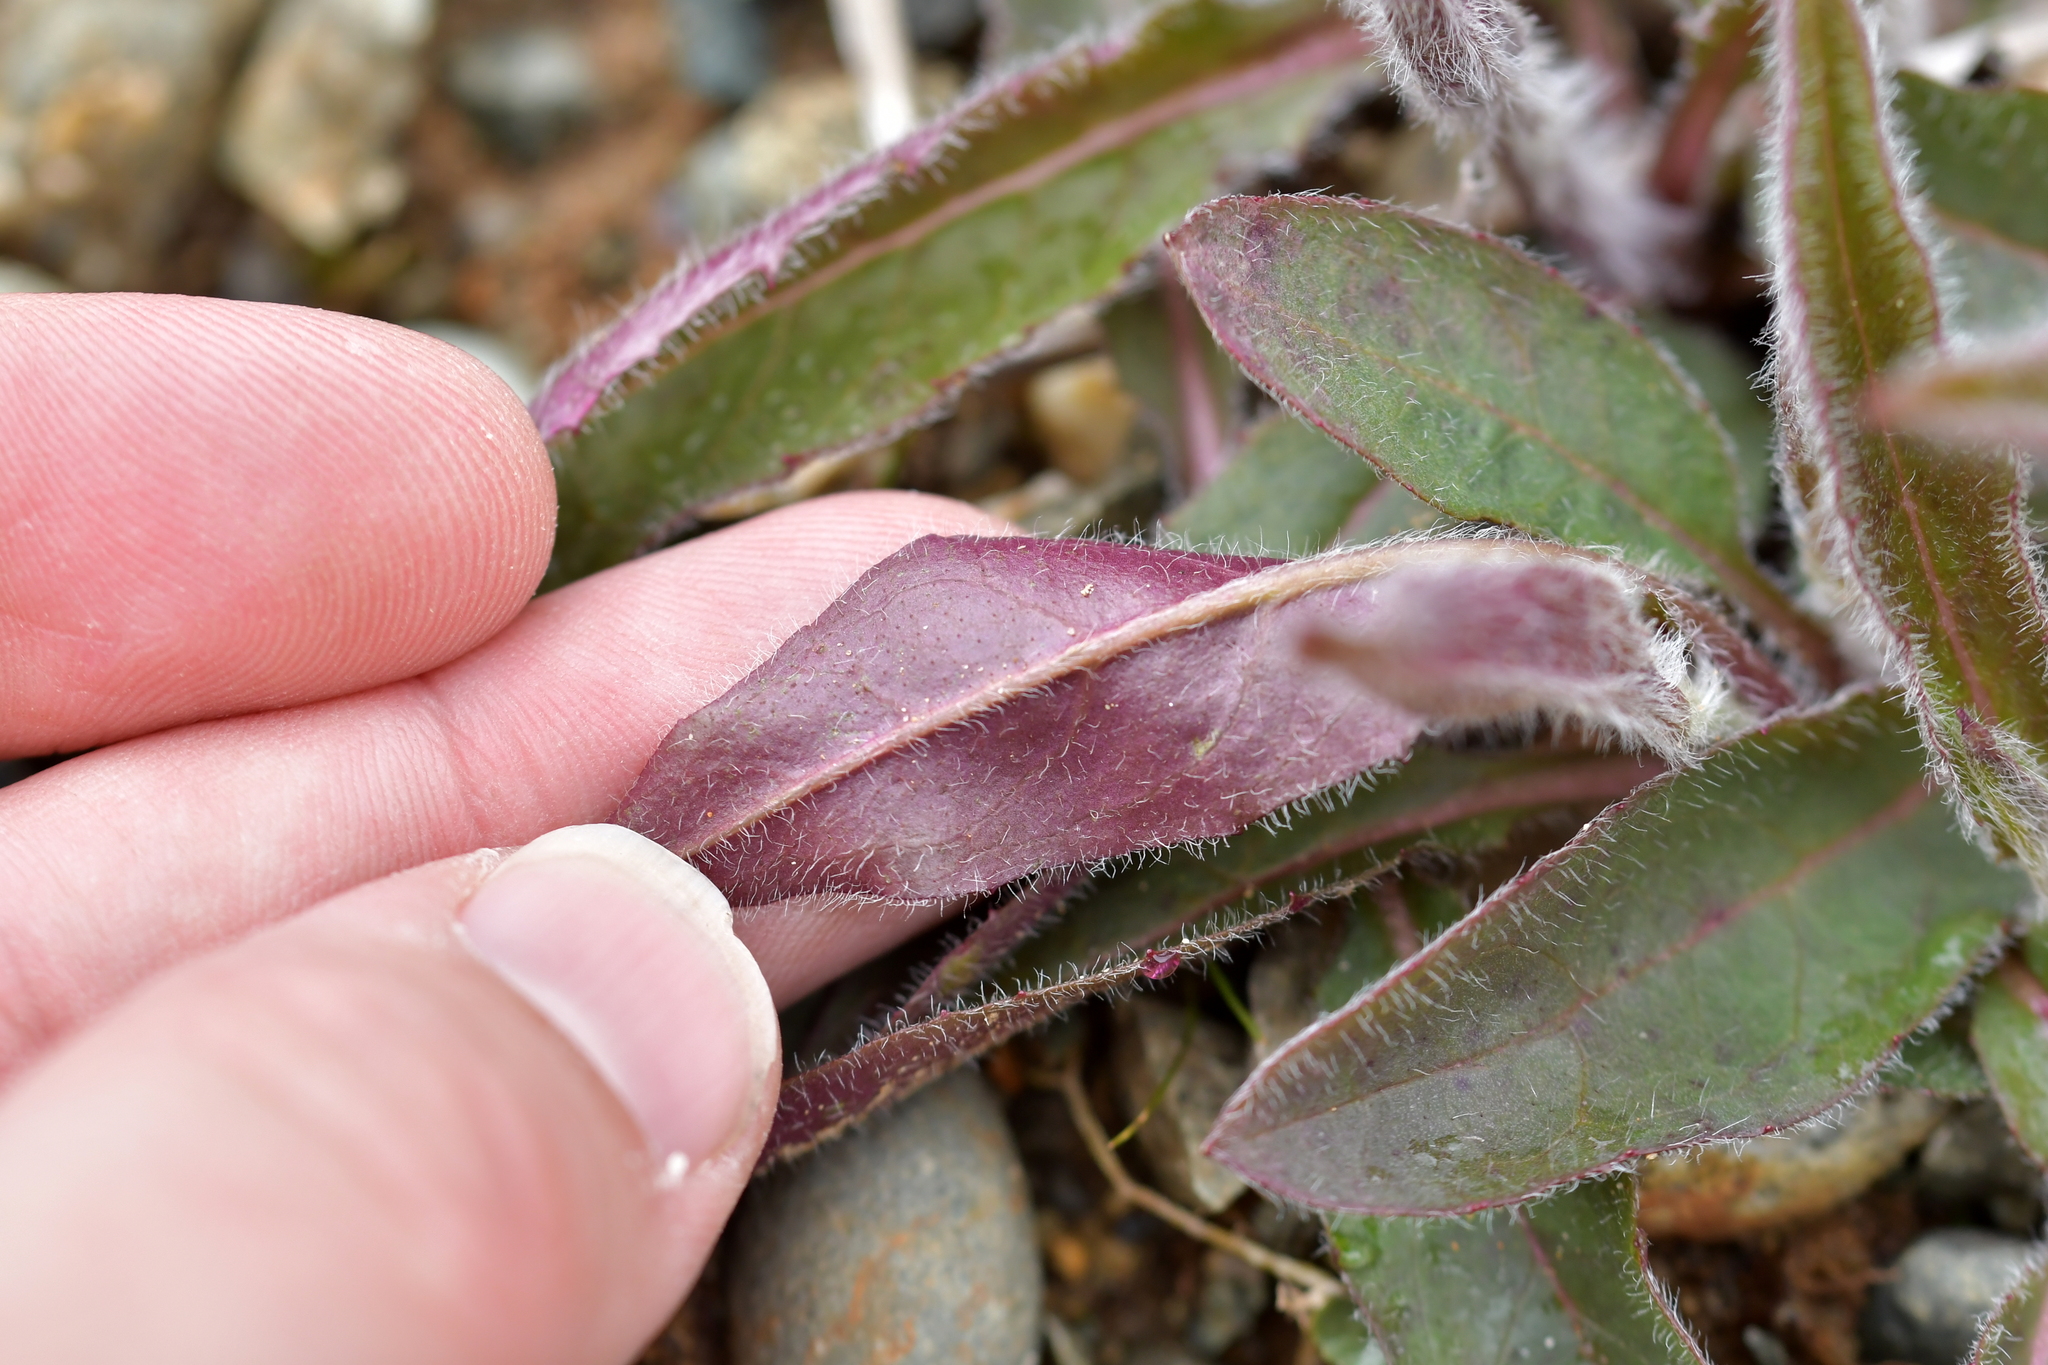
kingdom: Plantae
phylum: Tracheophyta
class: Magnoliopsida
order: Asterales
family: Asteraceae
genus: Hieracium
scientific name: Hieracium lepidulum
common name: Irregular-toothed hawkweed
